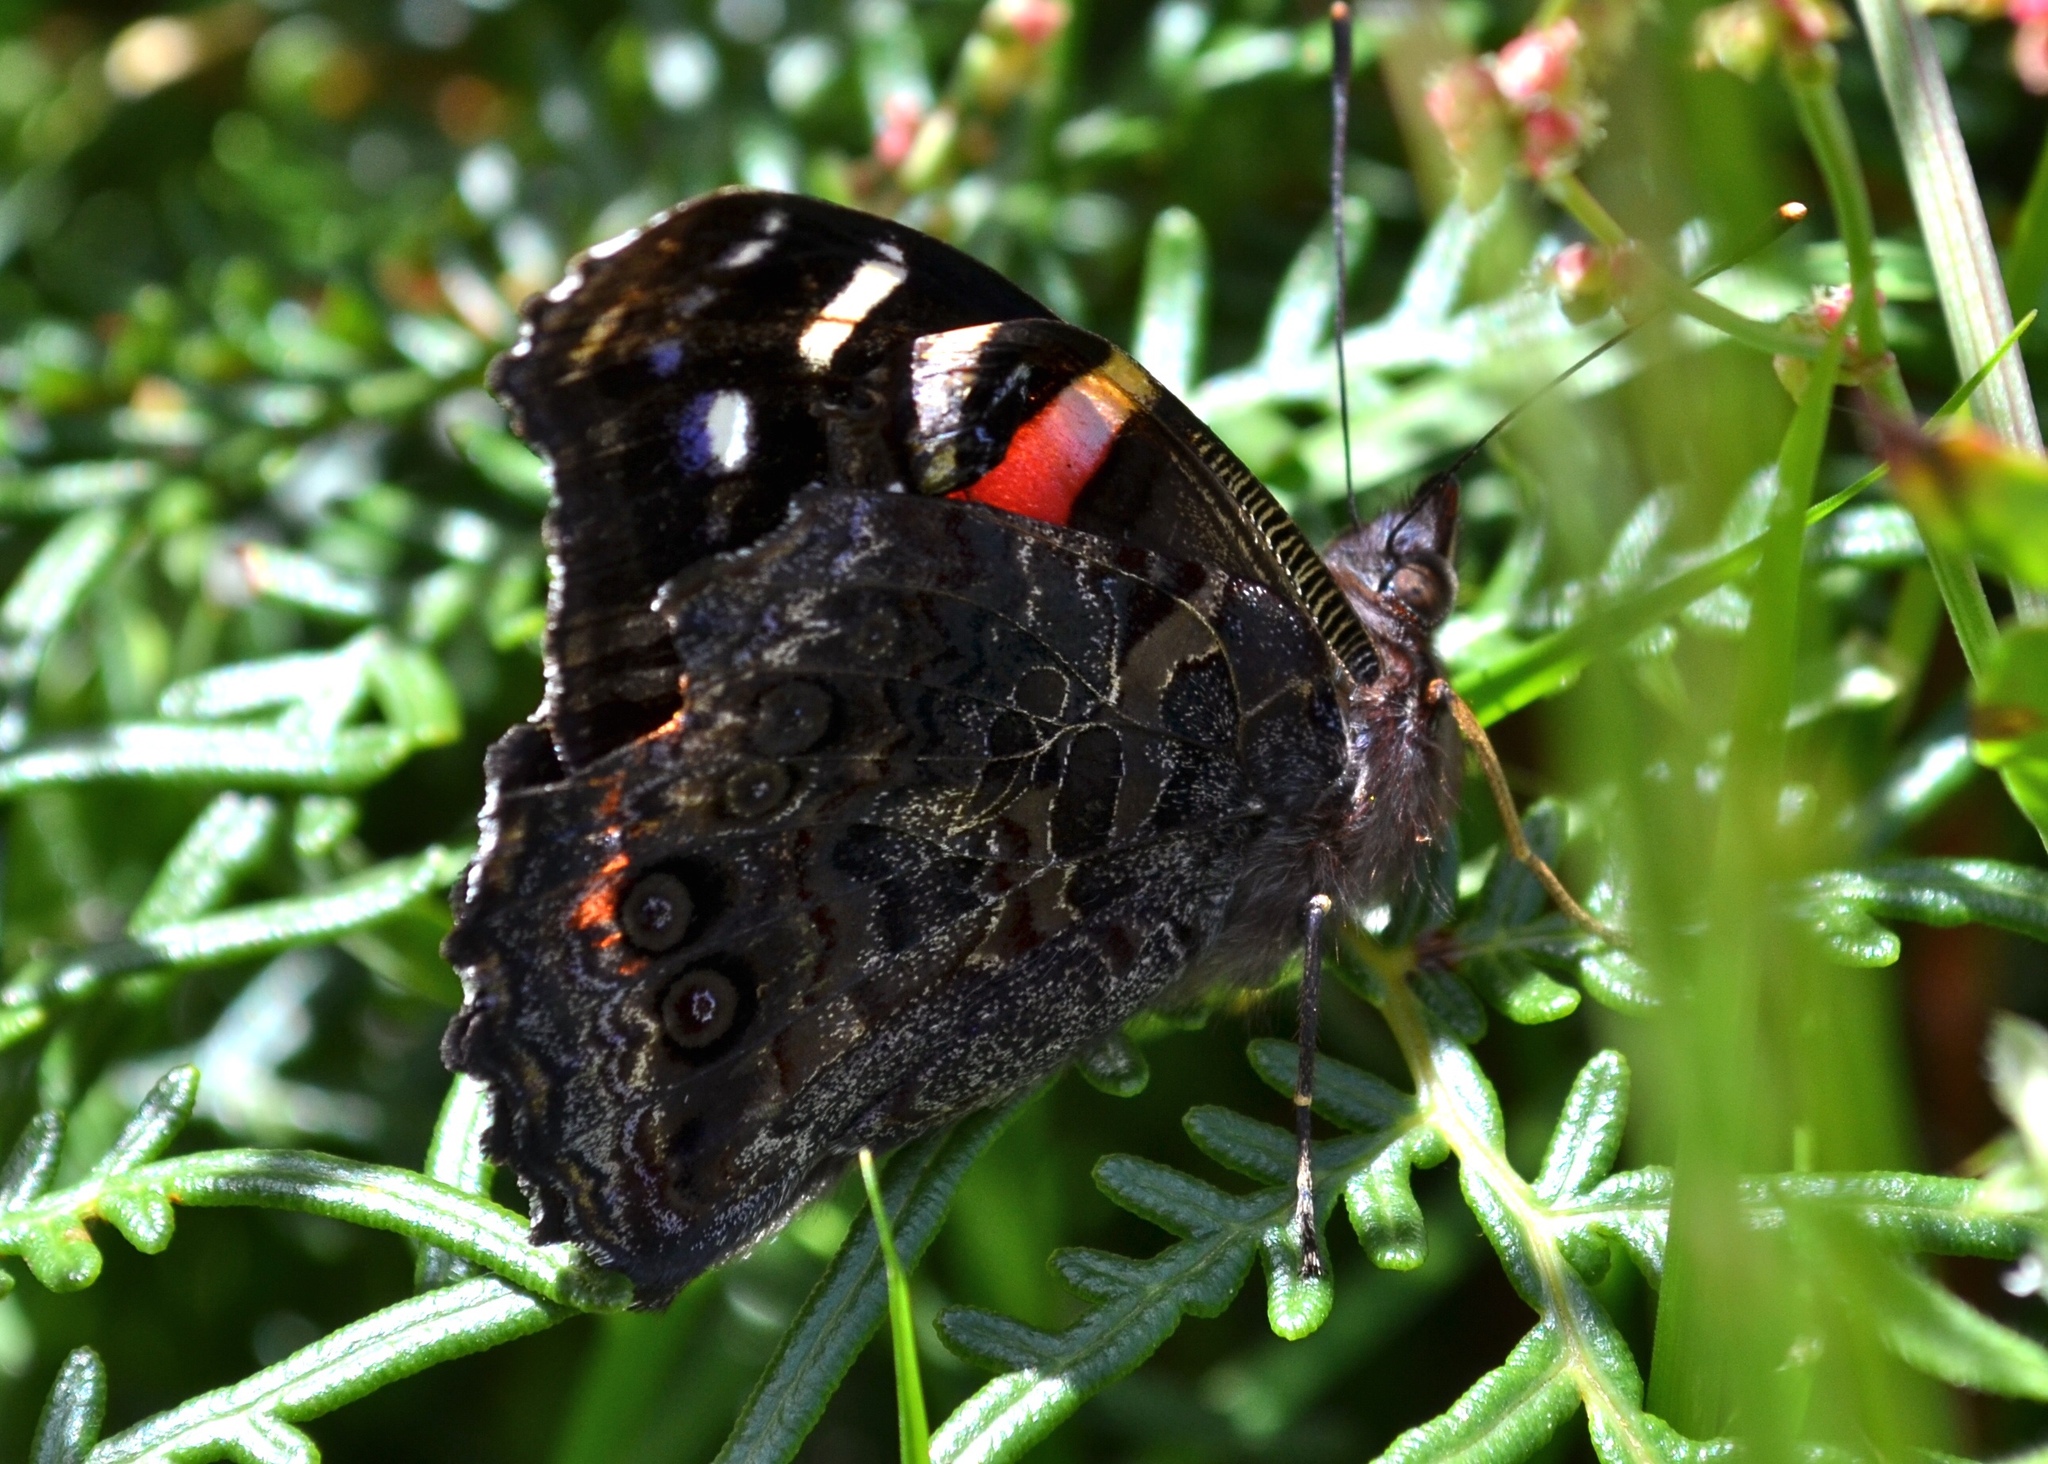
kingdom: Animalia
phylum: Arthropoda
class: Insecta
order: Lepidoptera
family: Nymphalidae
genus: Vanessa
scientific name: Vanessa gonerilla
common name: New zealand red admiral
